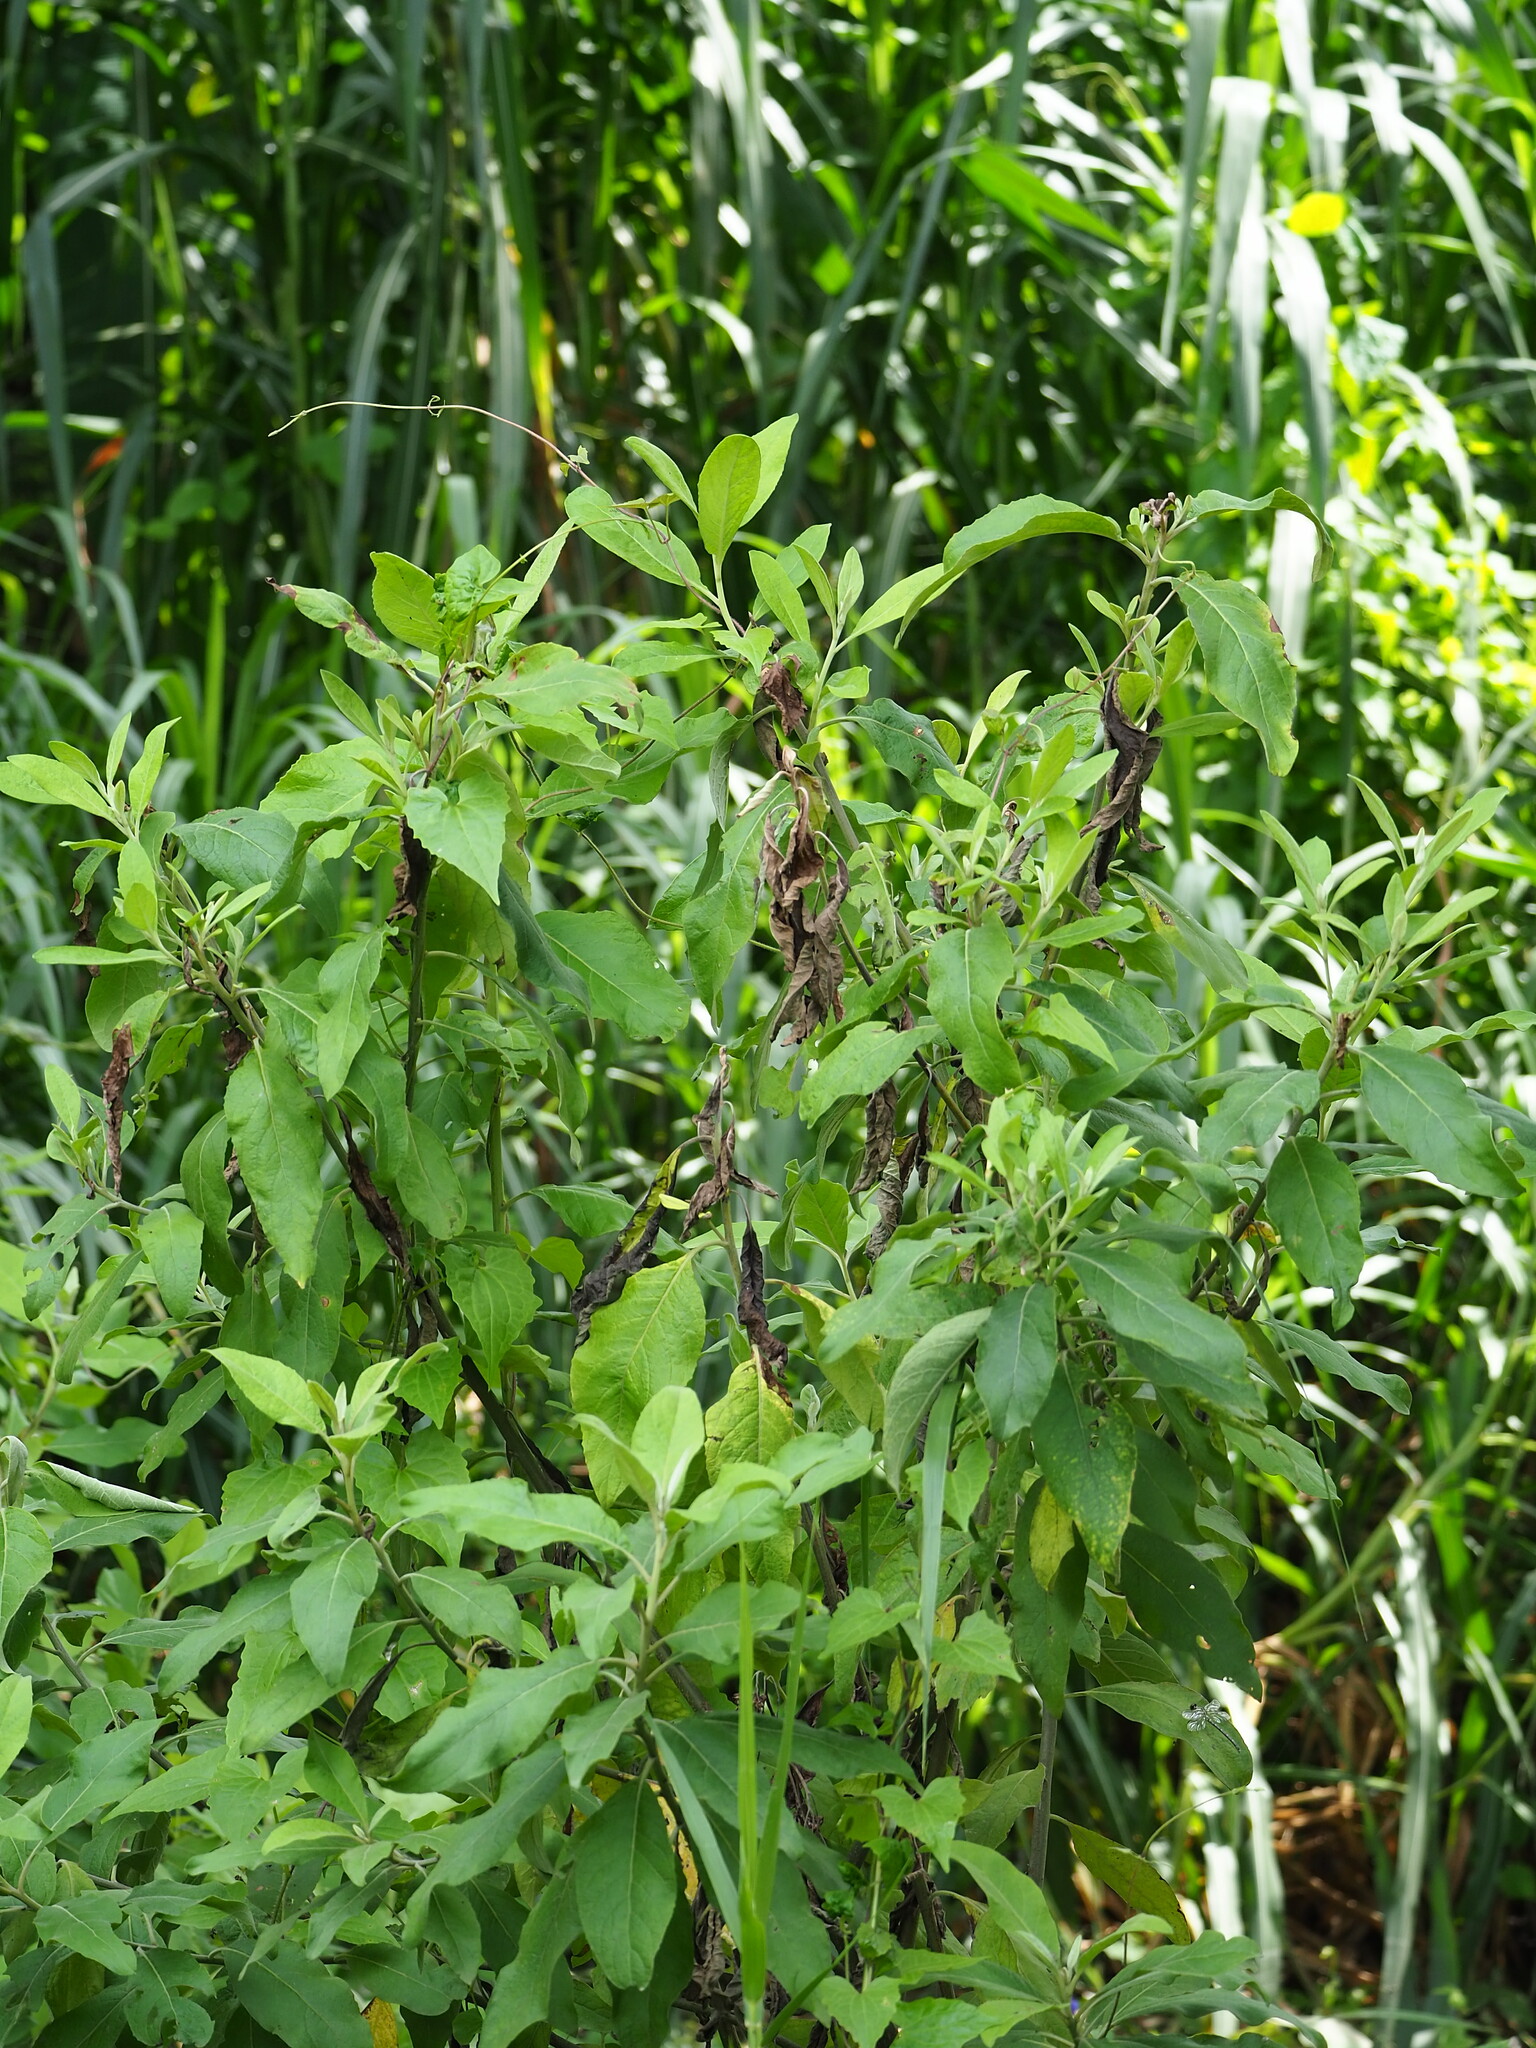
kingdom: Plantae
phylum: Tracheophyta
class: Magnoliopsida
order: Asterales
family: Asteraceae
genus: Pluchea
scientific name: Pluchea carolinensis
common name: Marsh fleabane
